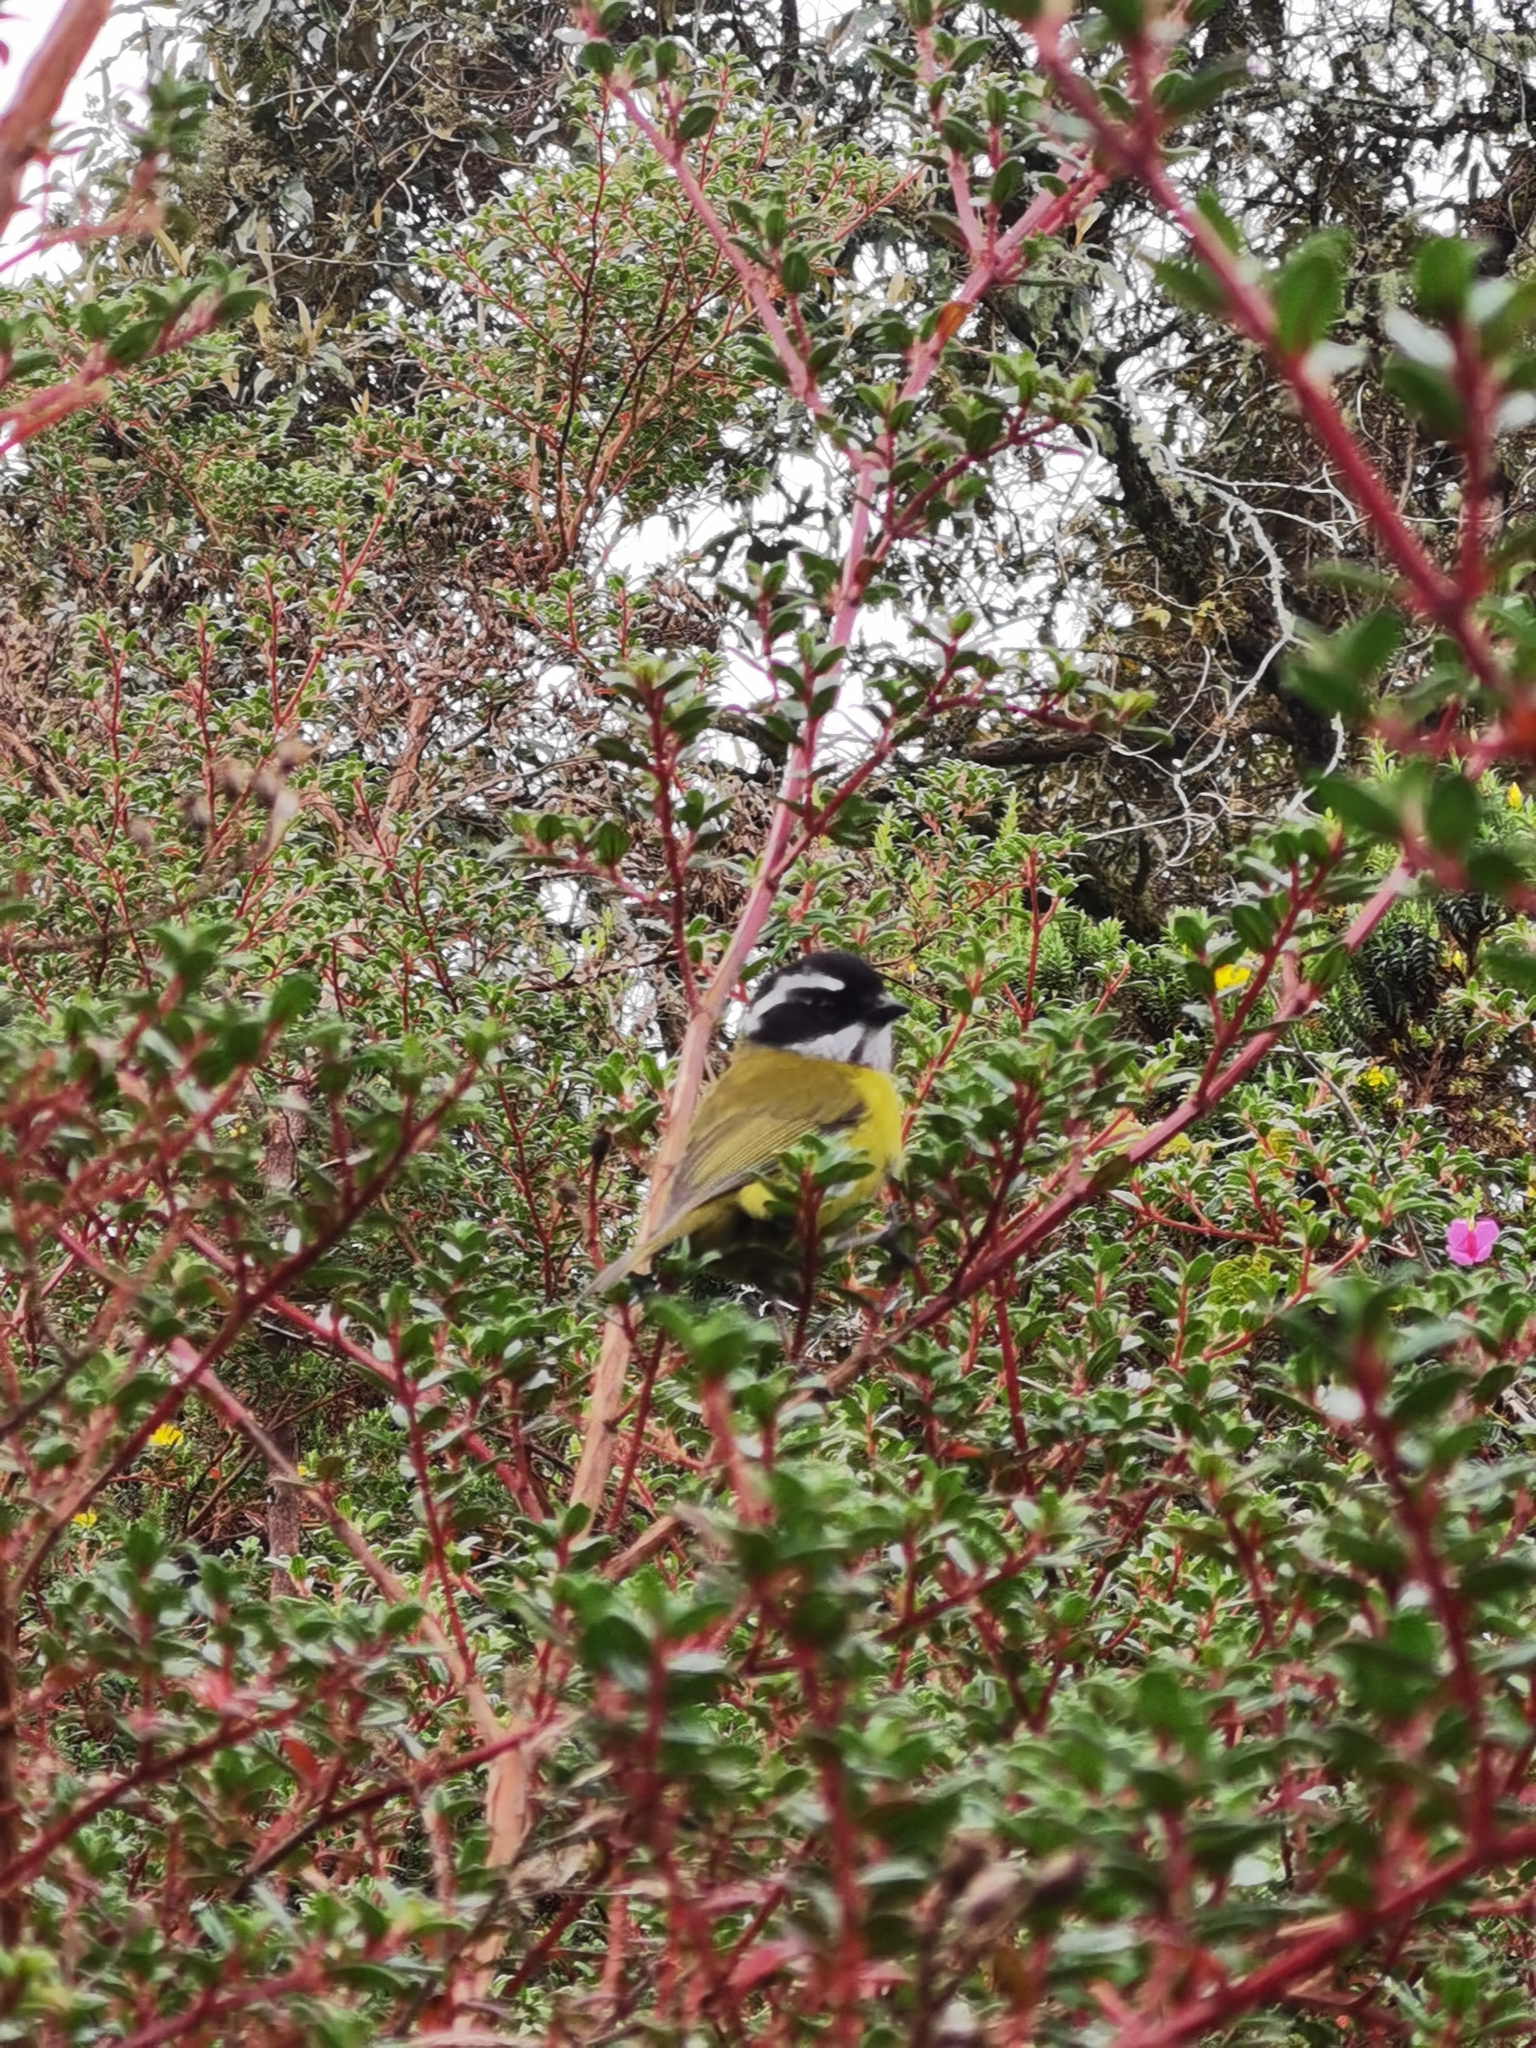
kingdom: Animalia
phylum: Chordata
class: Aves
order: Passeriformes
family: Passerellidae
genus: Chlorospingus
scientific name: Chlorospingus pileatus
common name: Sooty-capped bush-tanager
